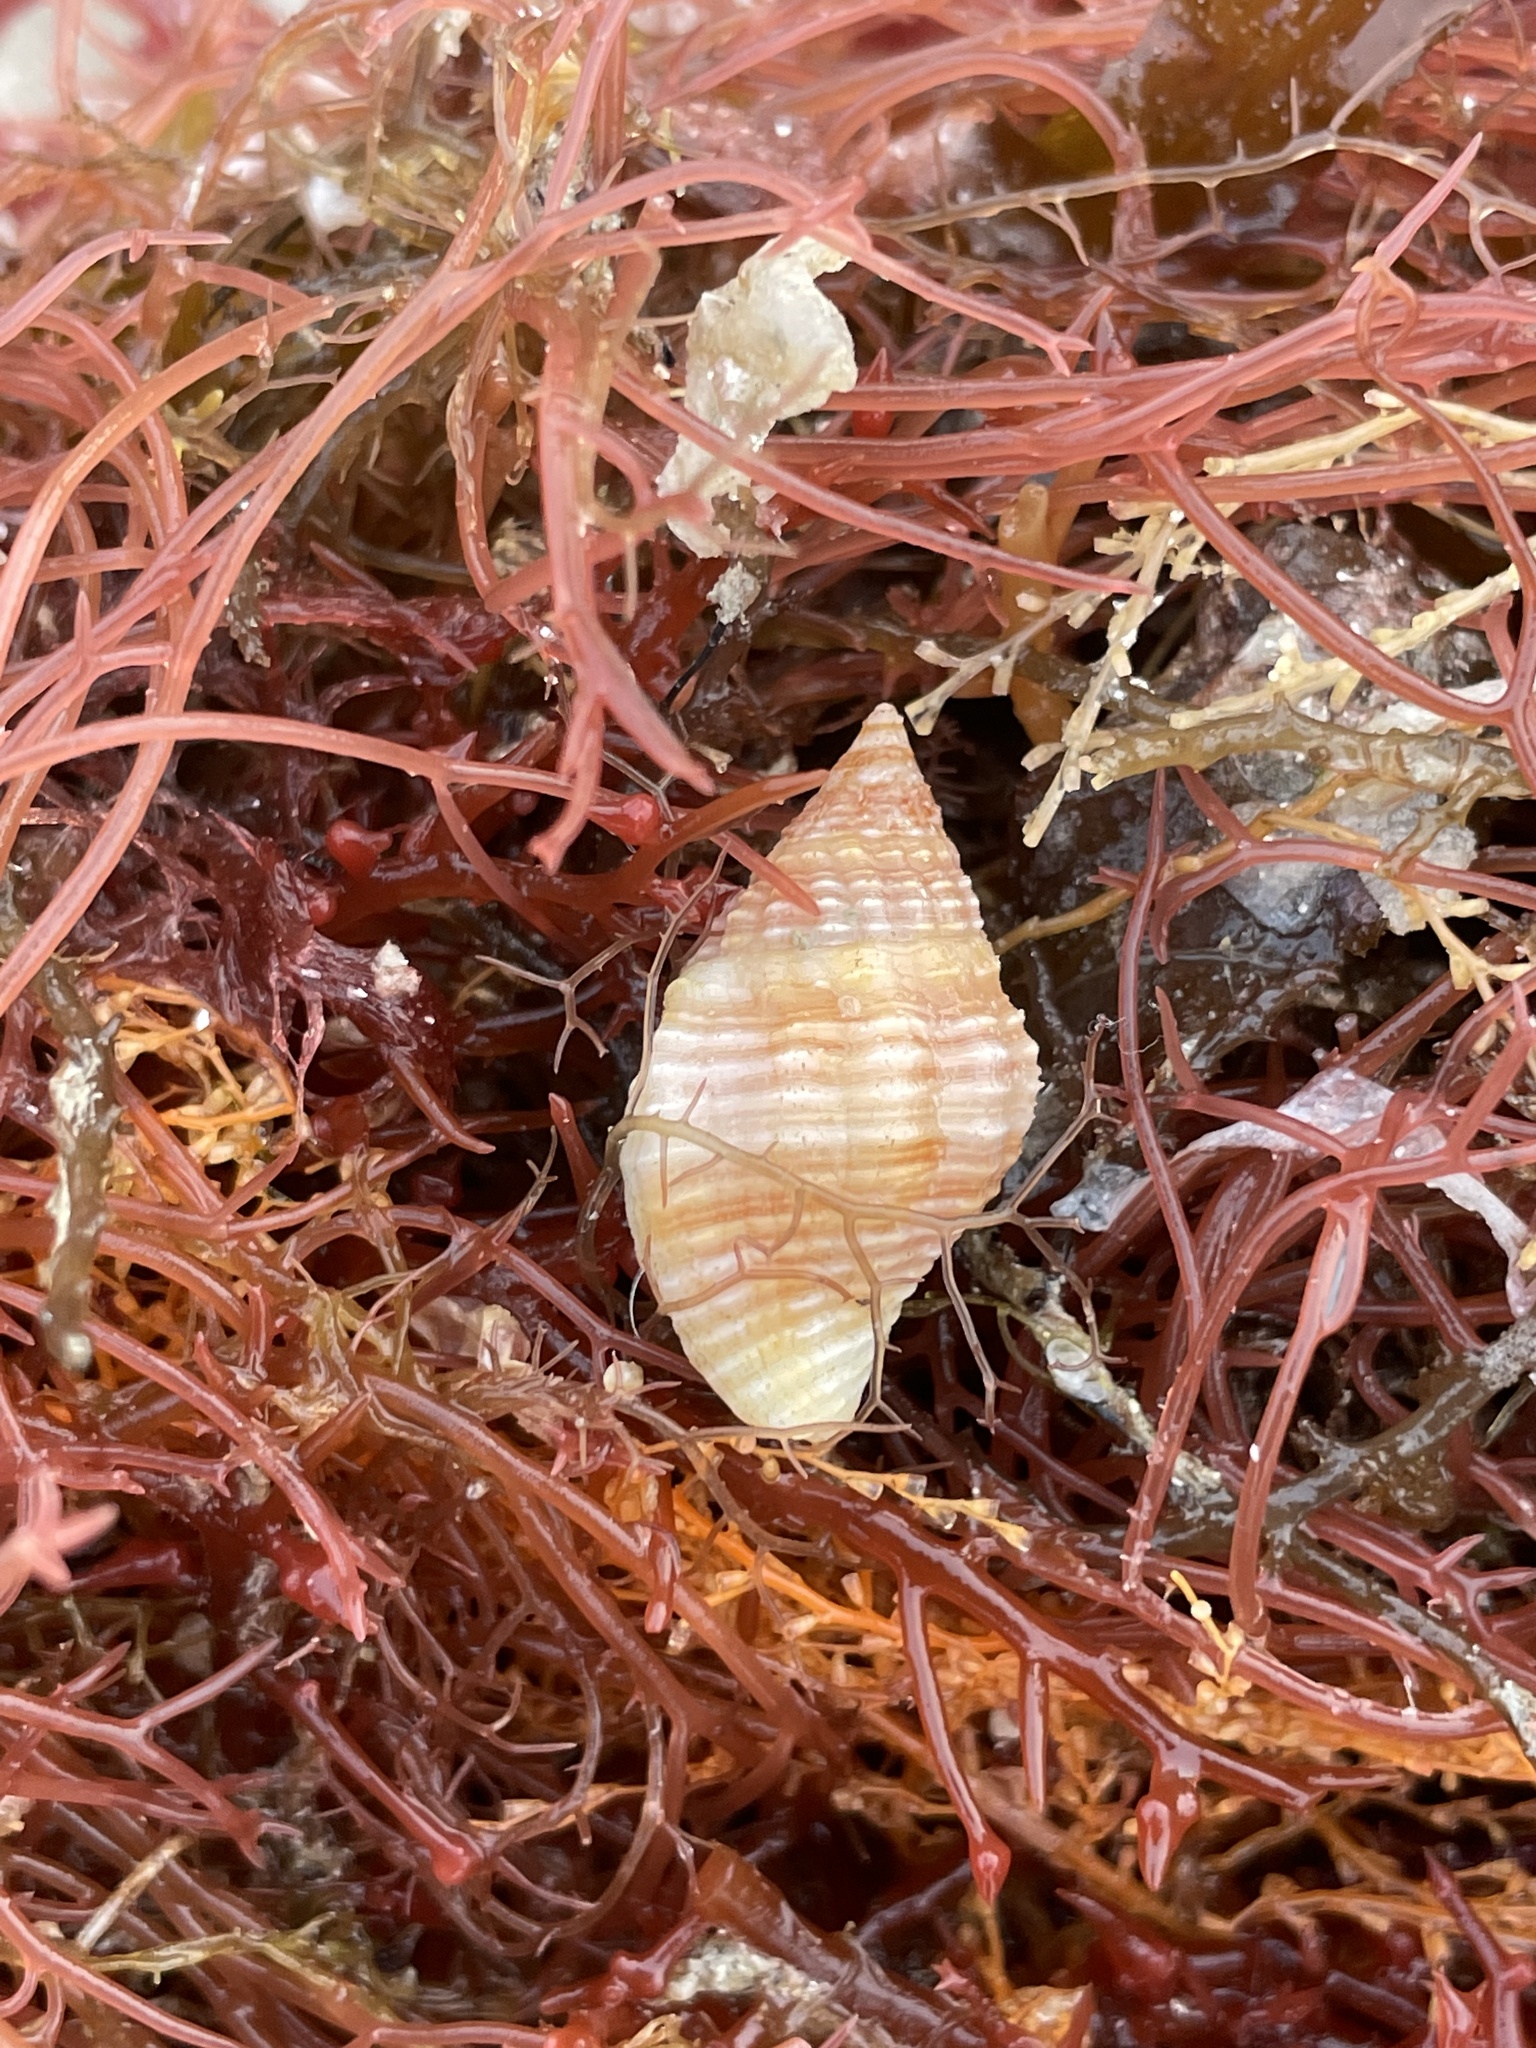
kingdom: Animalia
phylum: Mollusca
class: Gastropoda
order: Neogastropoda
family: Pisaniidae
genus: Gemophos
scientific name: Gemophos tinctus
